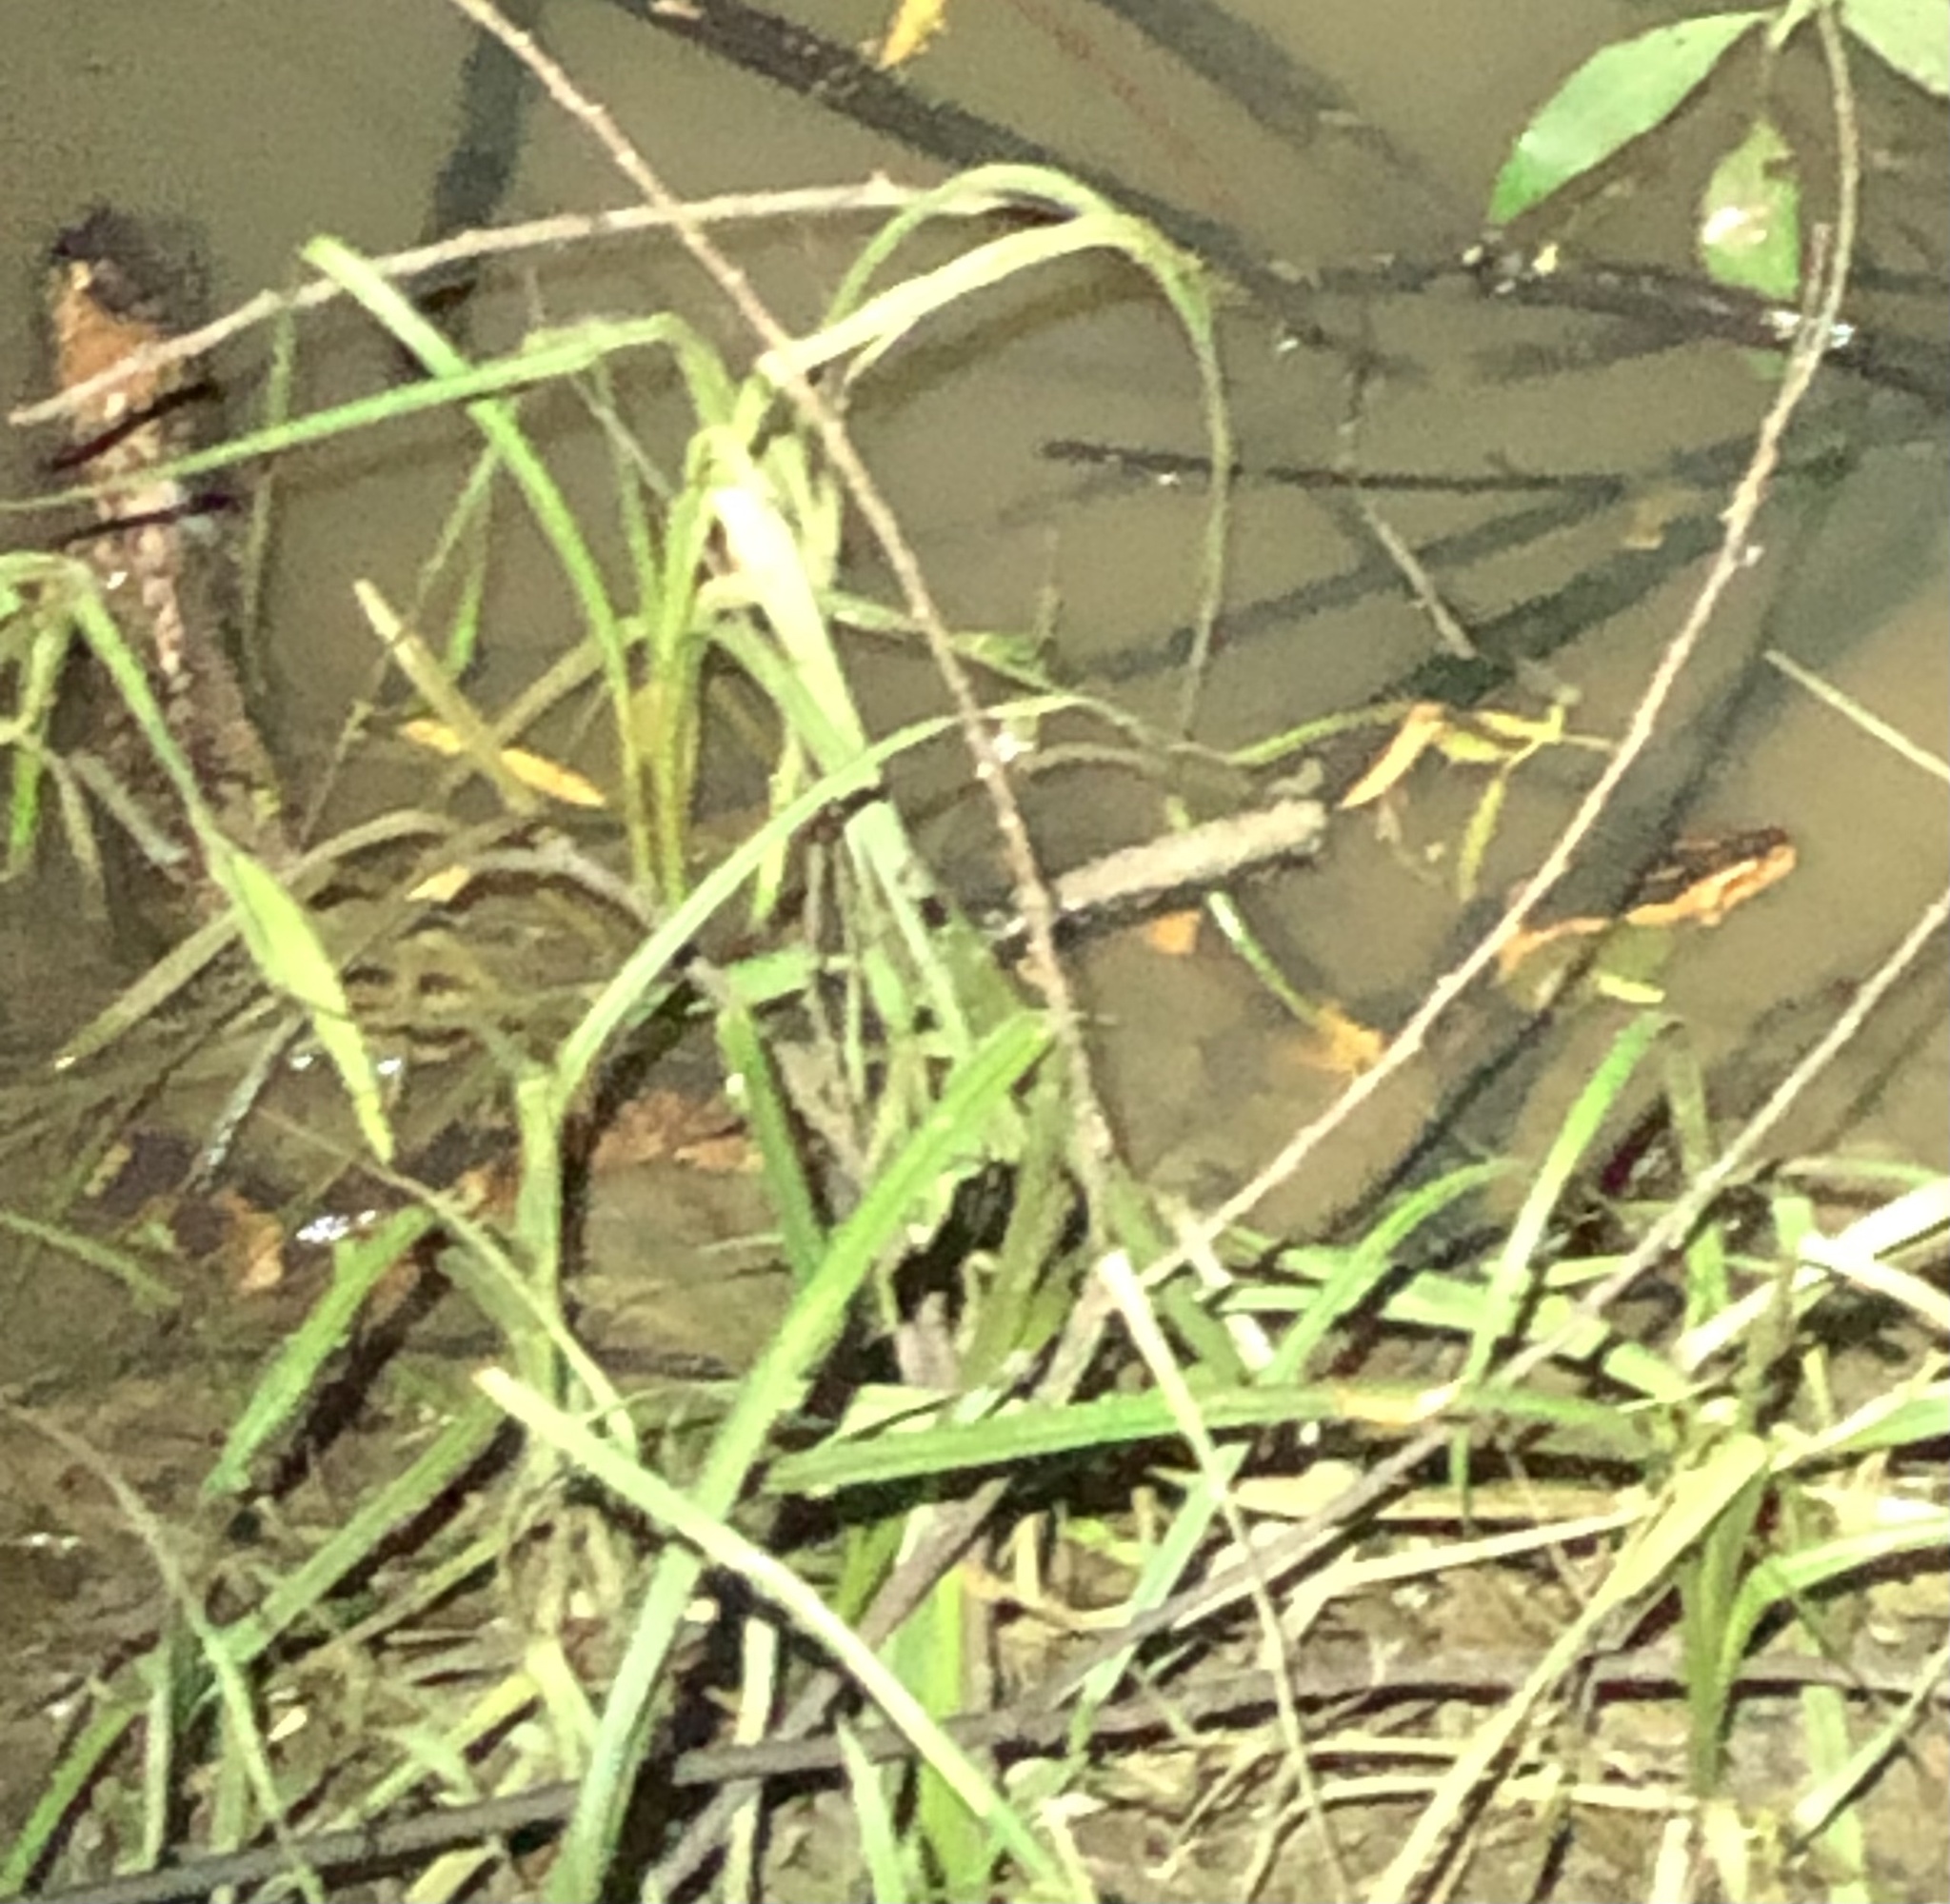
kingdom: Animalia
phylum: Chordata
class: Squamata
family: Colubridae
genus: Nerodia
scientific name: Nerodia fasciata
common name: Southern water snake
